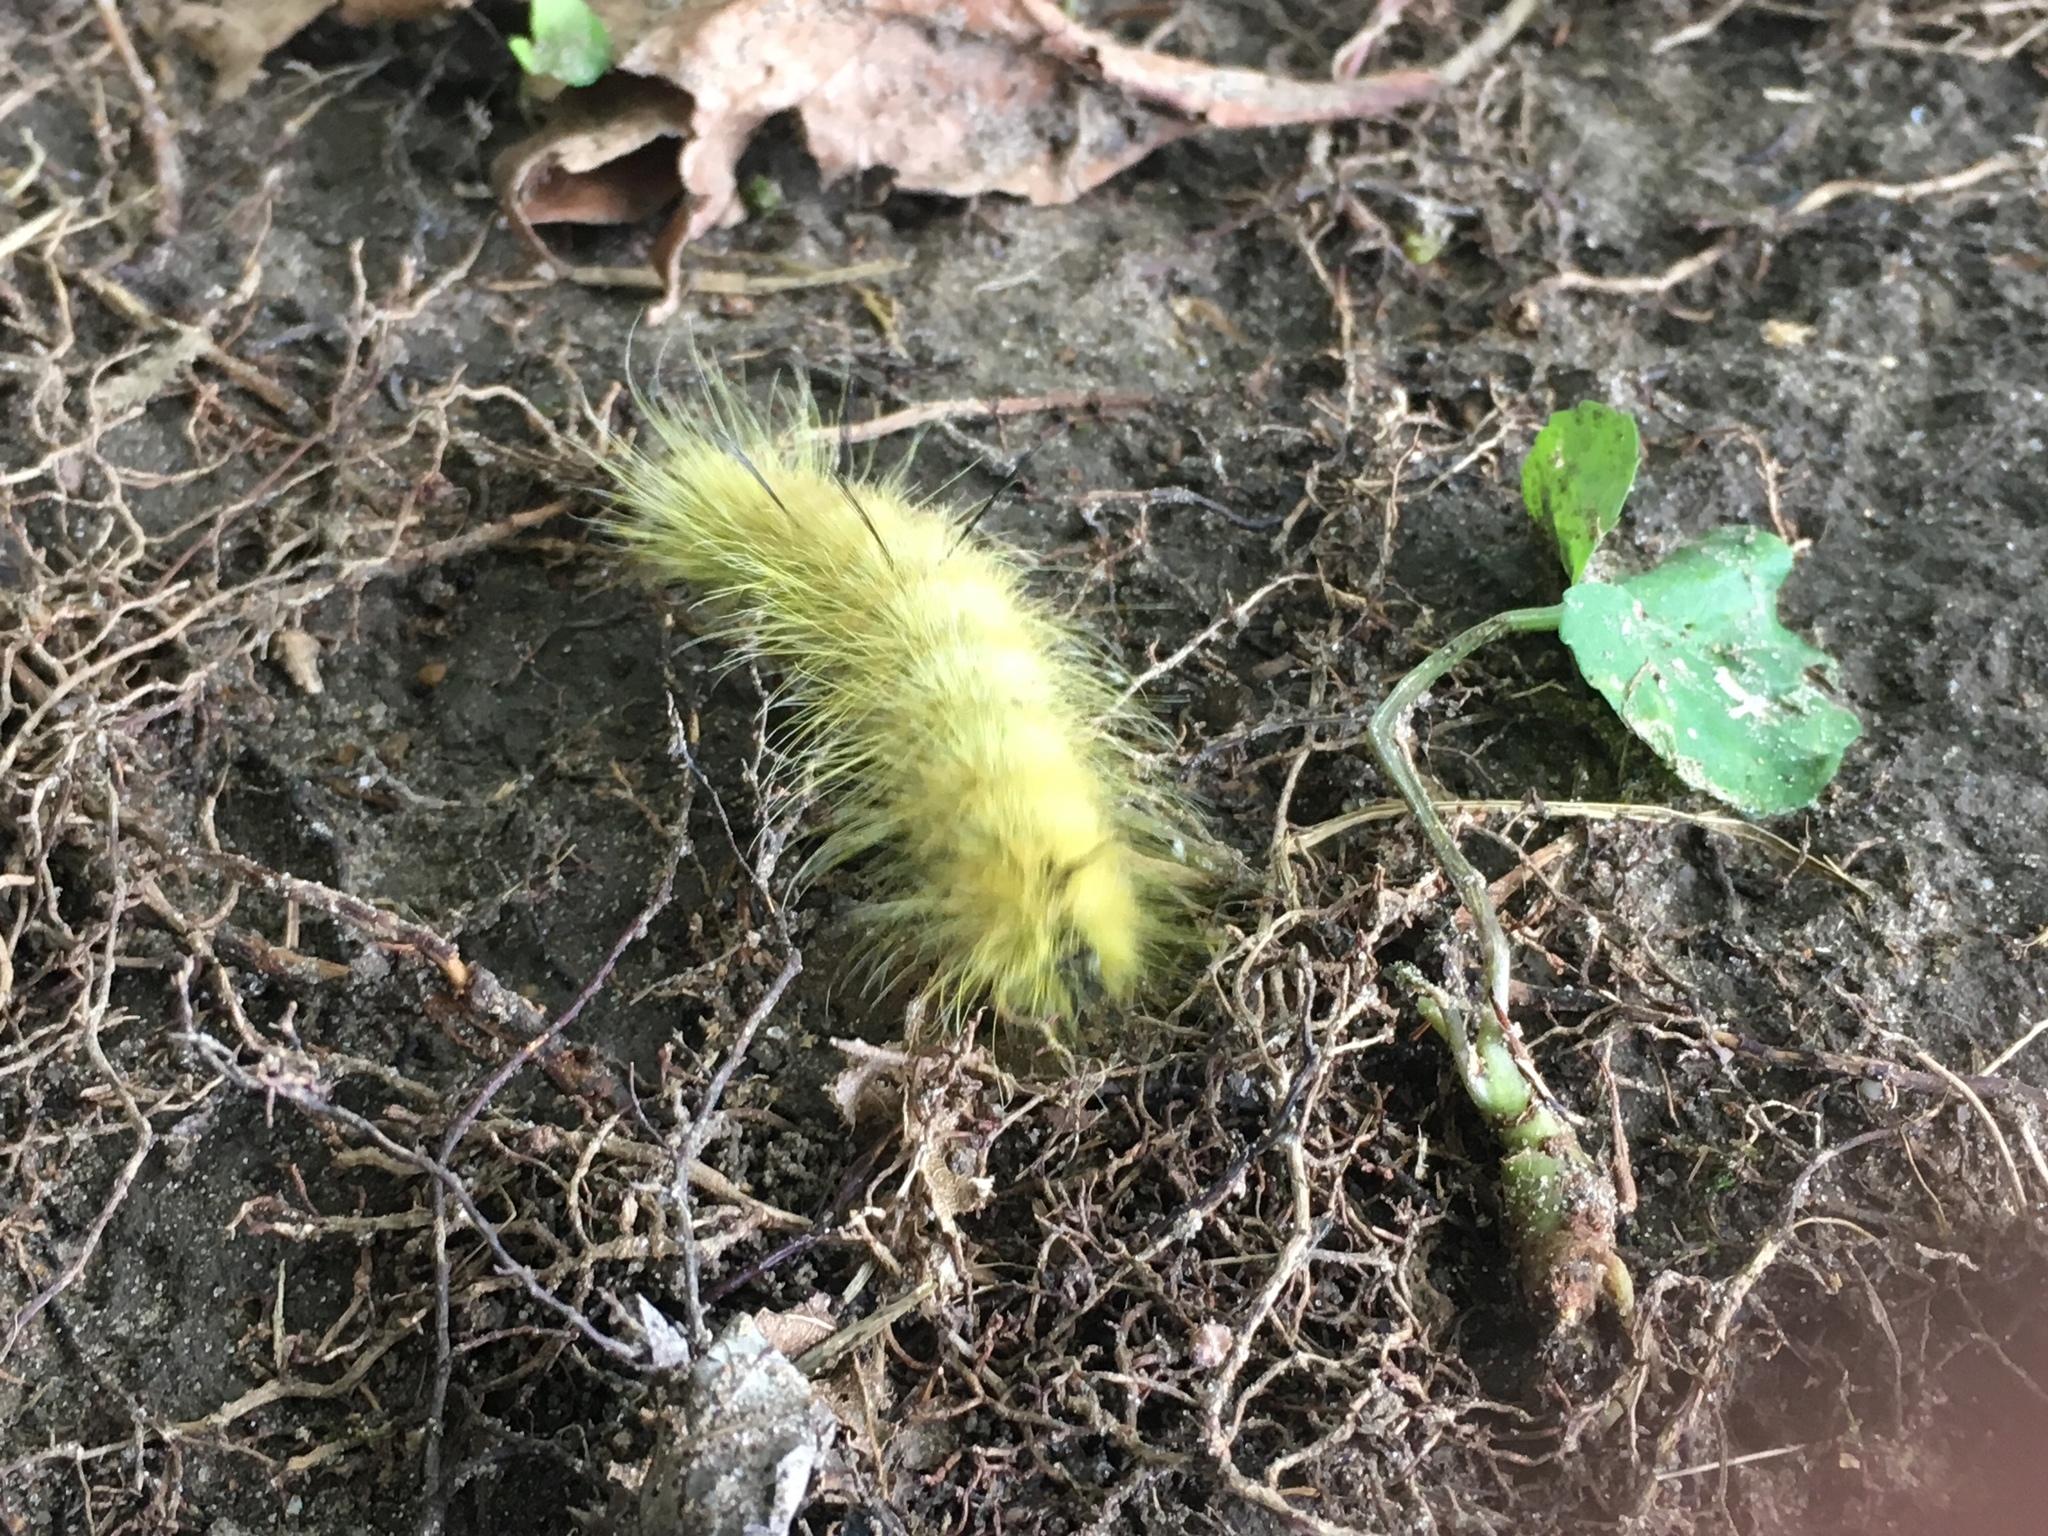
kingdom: Animalia
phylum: Arthropoda
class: Insecta
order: Lepidoptera
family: Noctuidae
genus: Acronicta
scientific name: Acronicta americana
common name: American dagger
